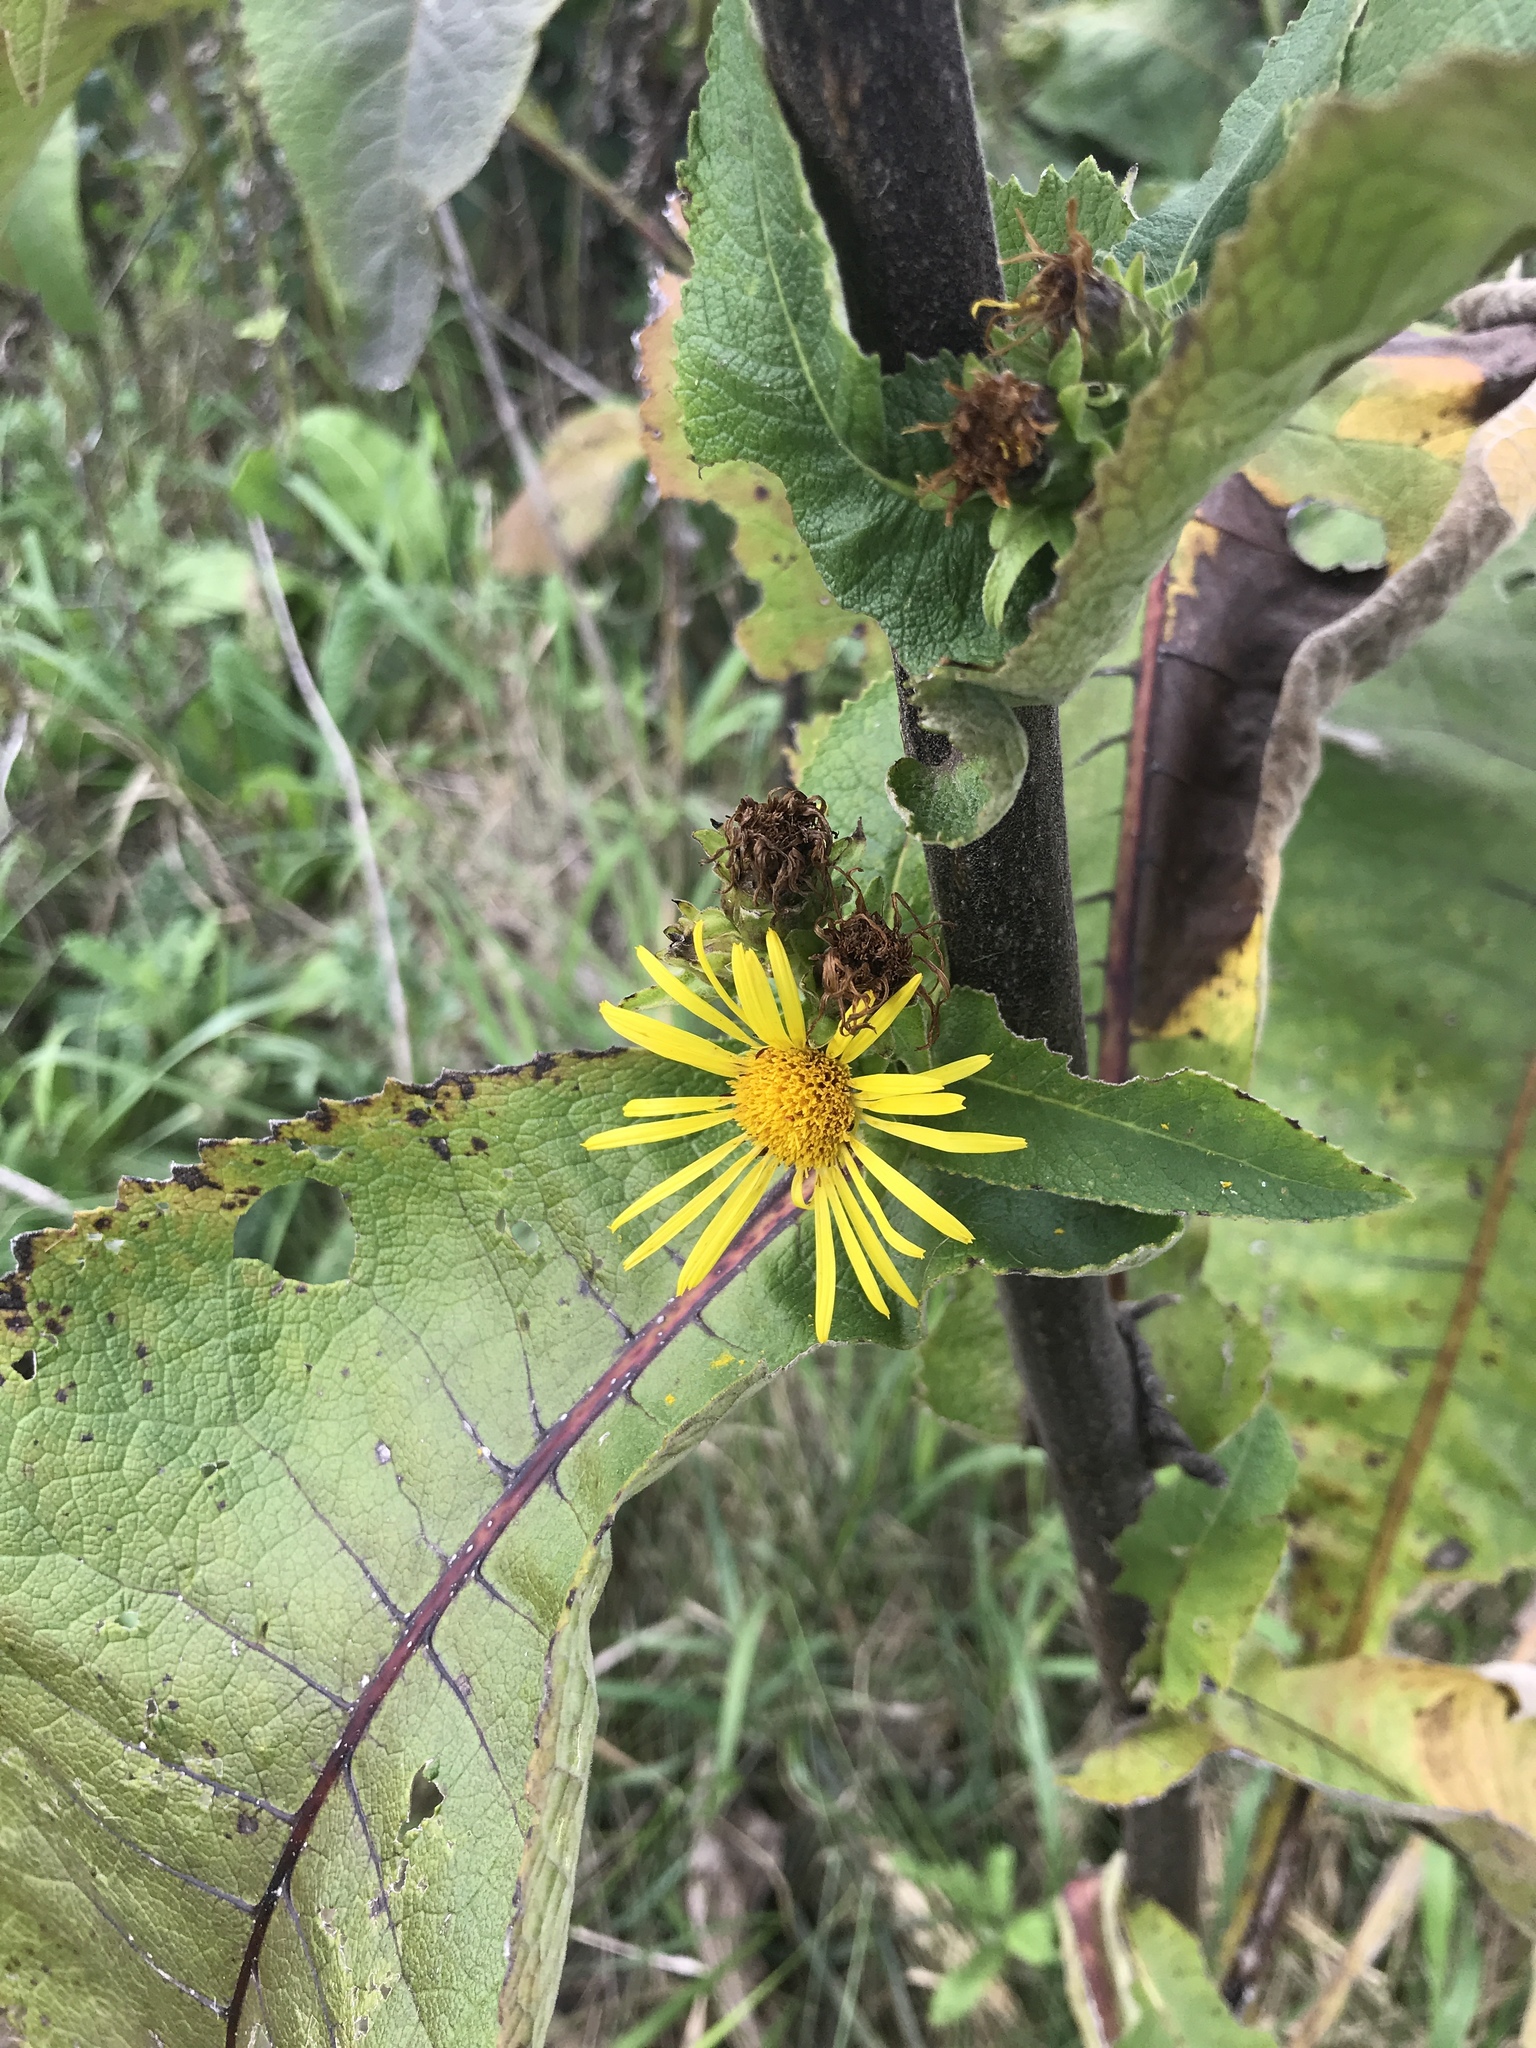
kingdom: Plantae
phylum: Tracheophyta
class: Magnoliopsida
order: Asterales
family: Asteraceae
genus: Inula
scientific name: Inula helenium
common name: Elecampane
